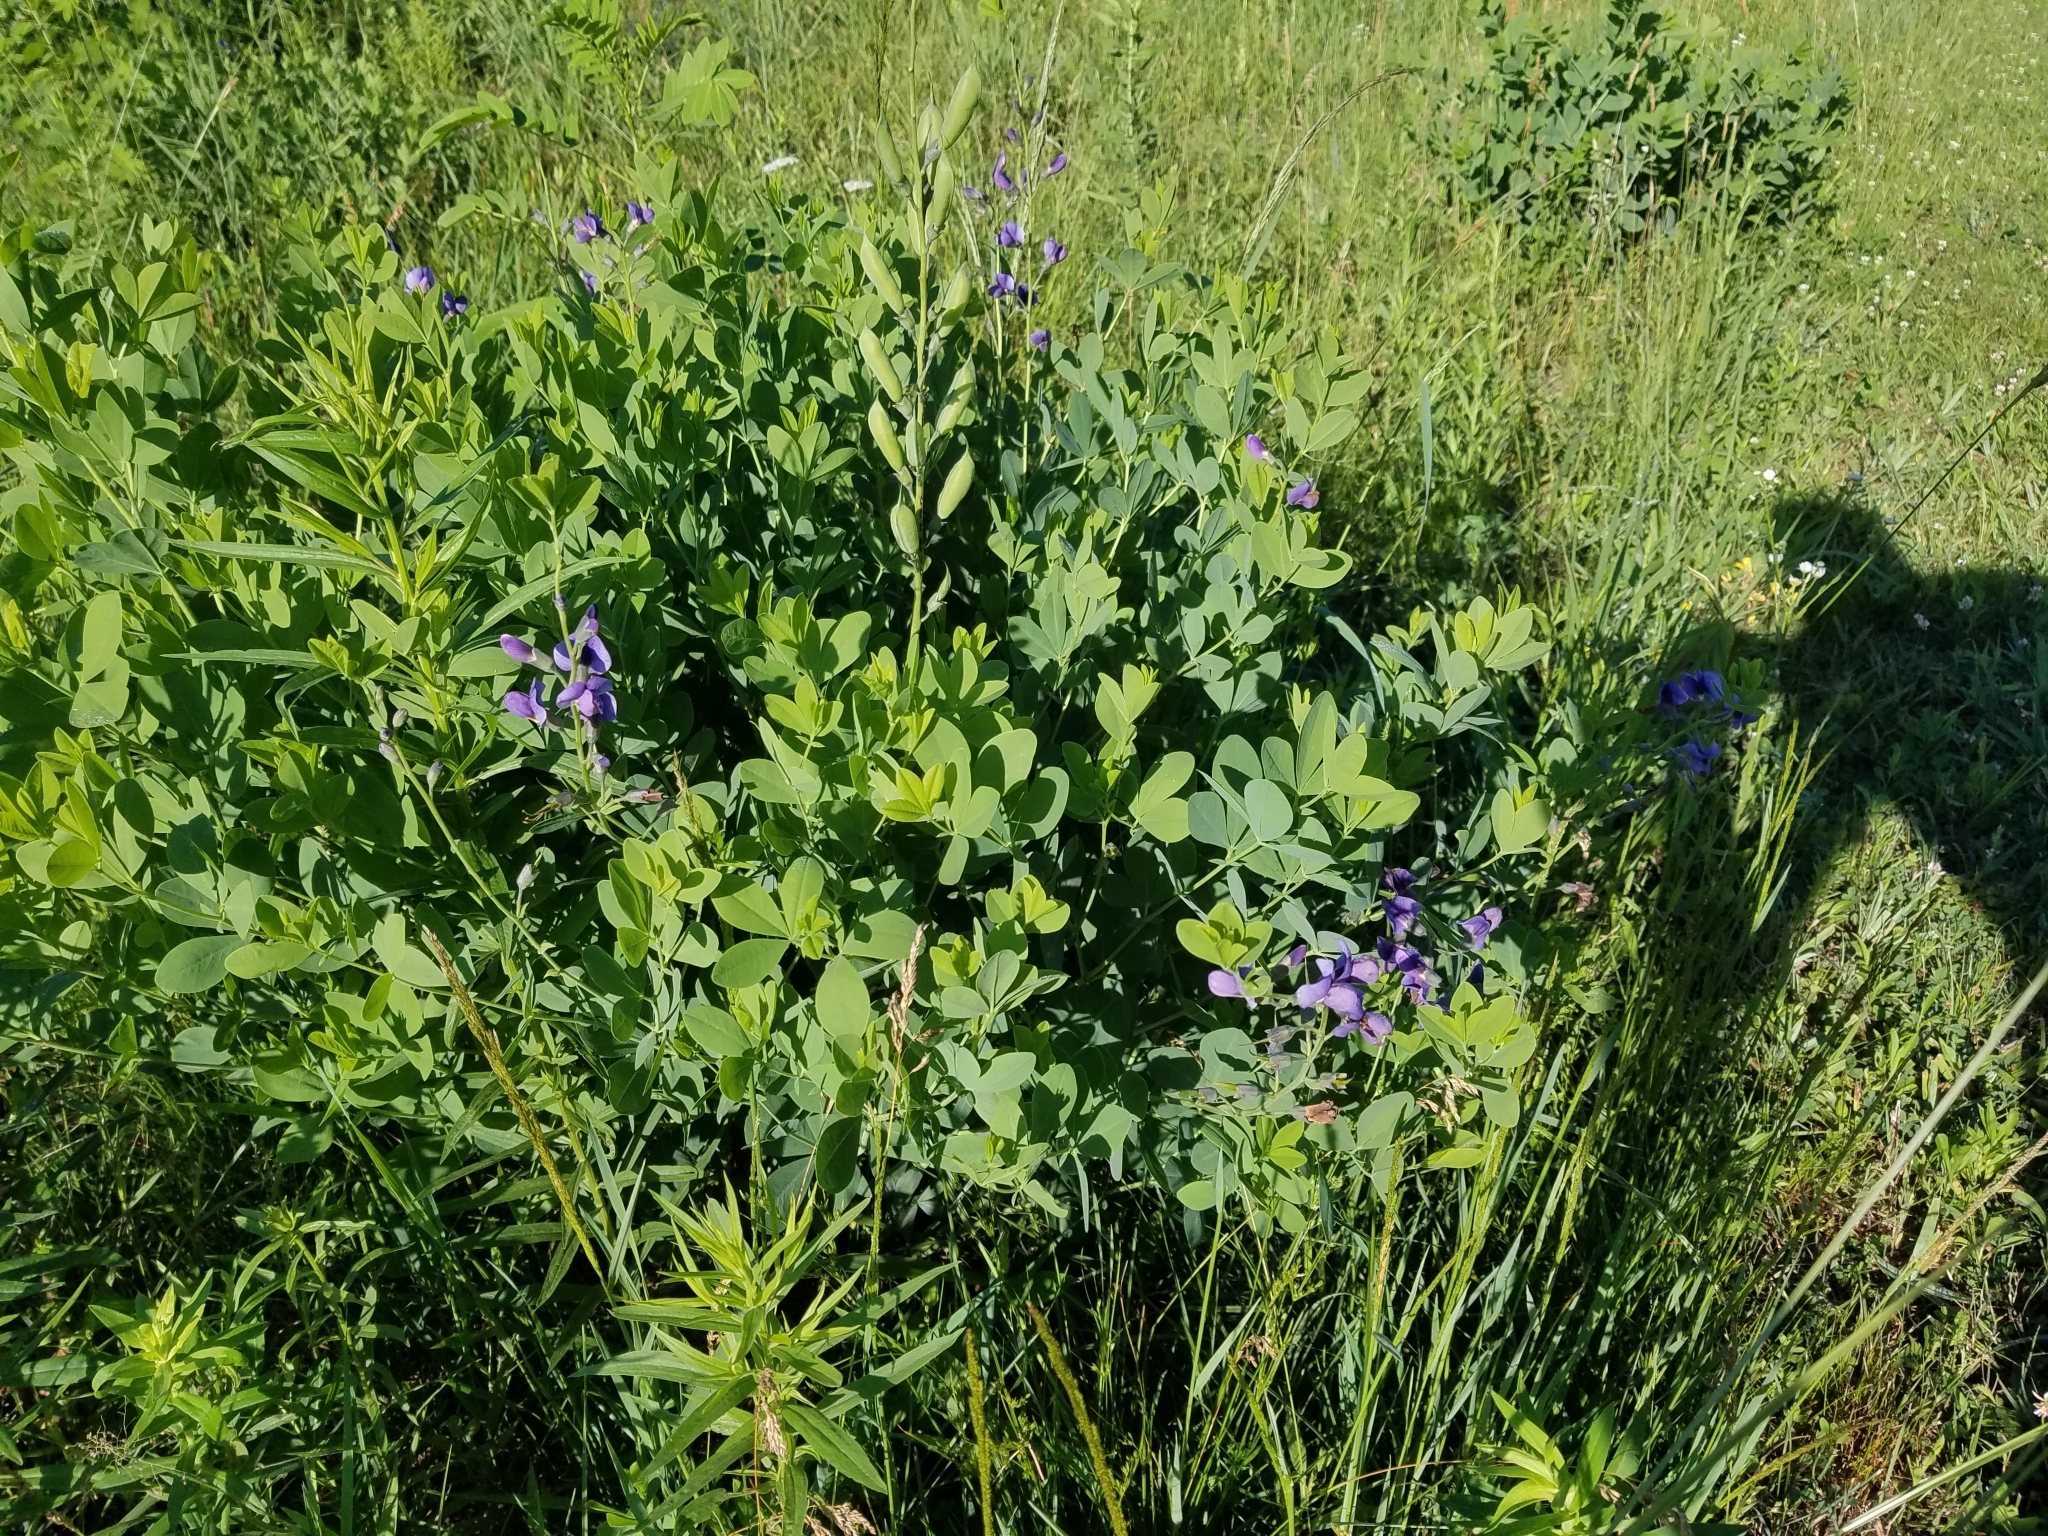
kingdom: Plantae
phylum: Tracheophyta
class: Magnoliopsida
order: Fabales
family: Fabaceae
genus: Baptisia
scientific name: Baptisia australis
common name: Blue false indigo
